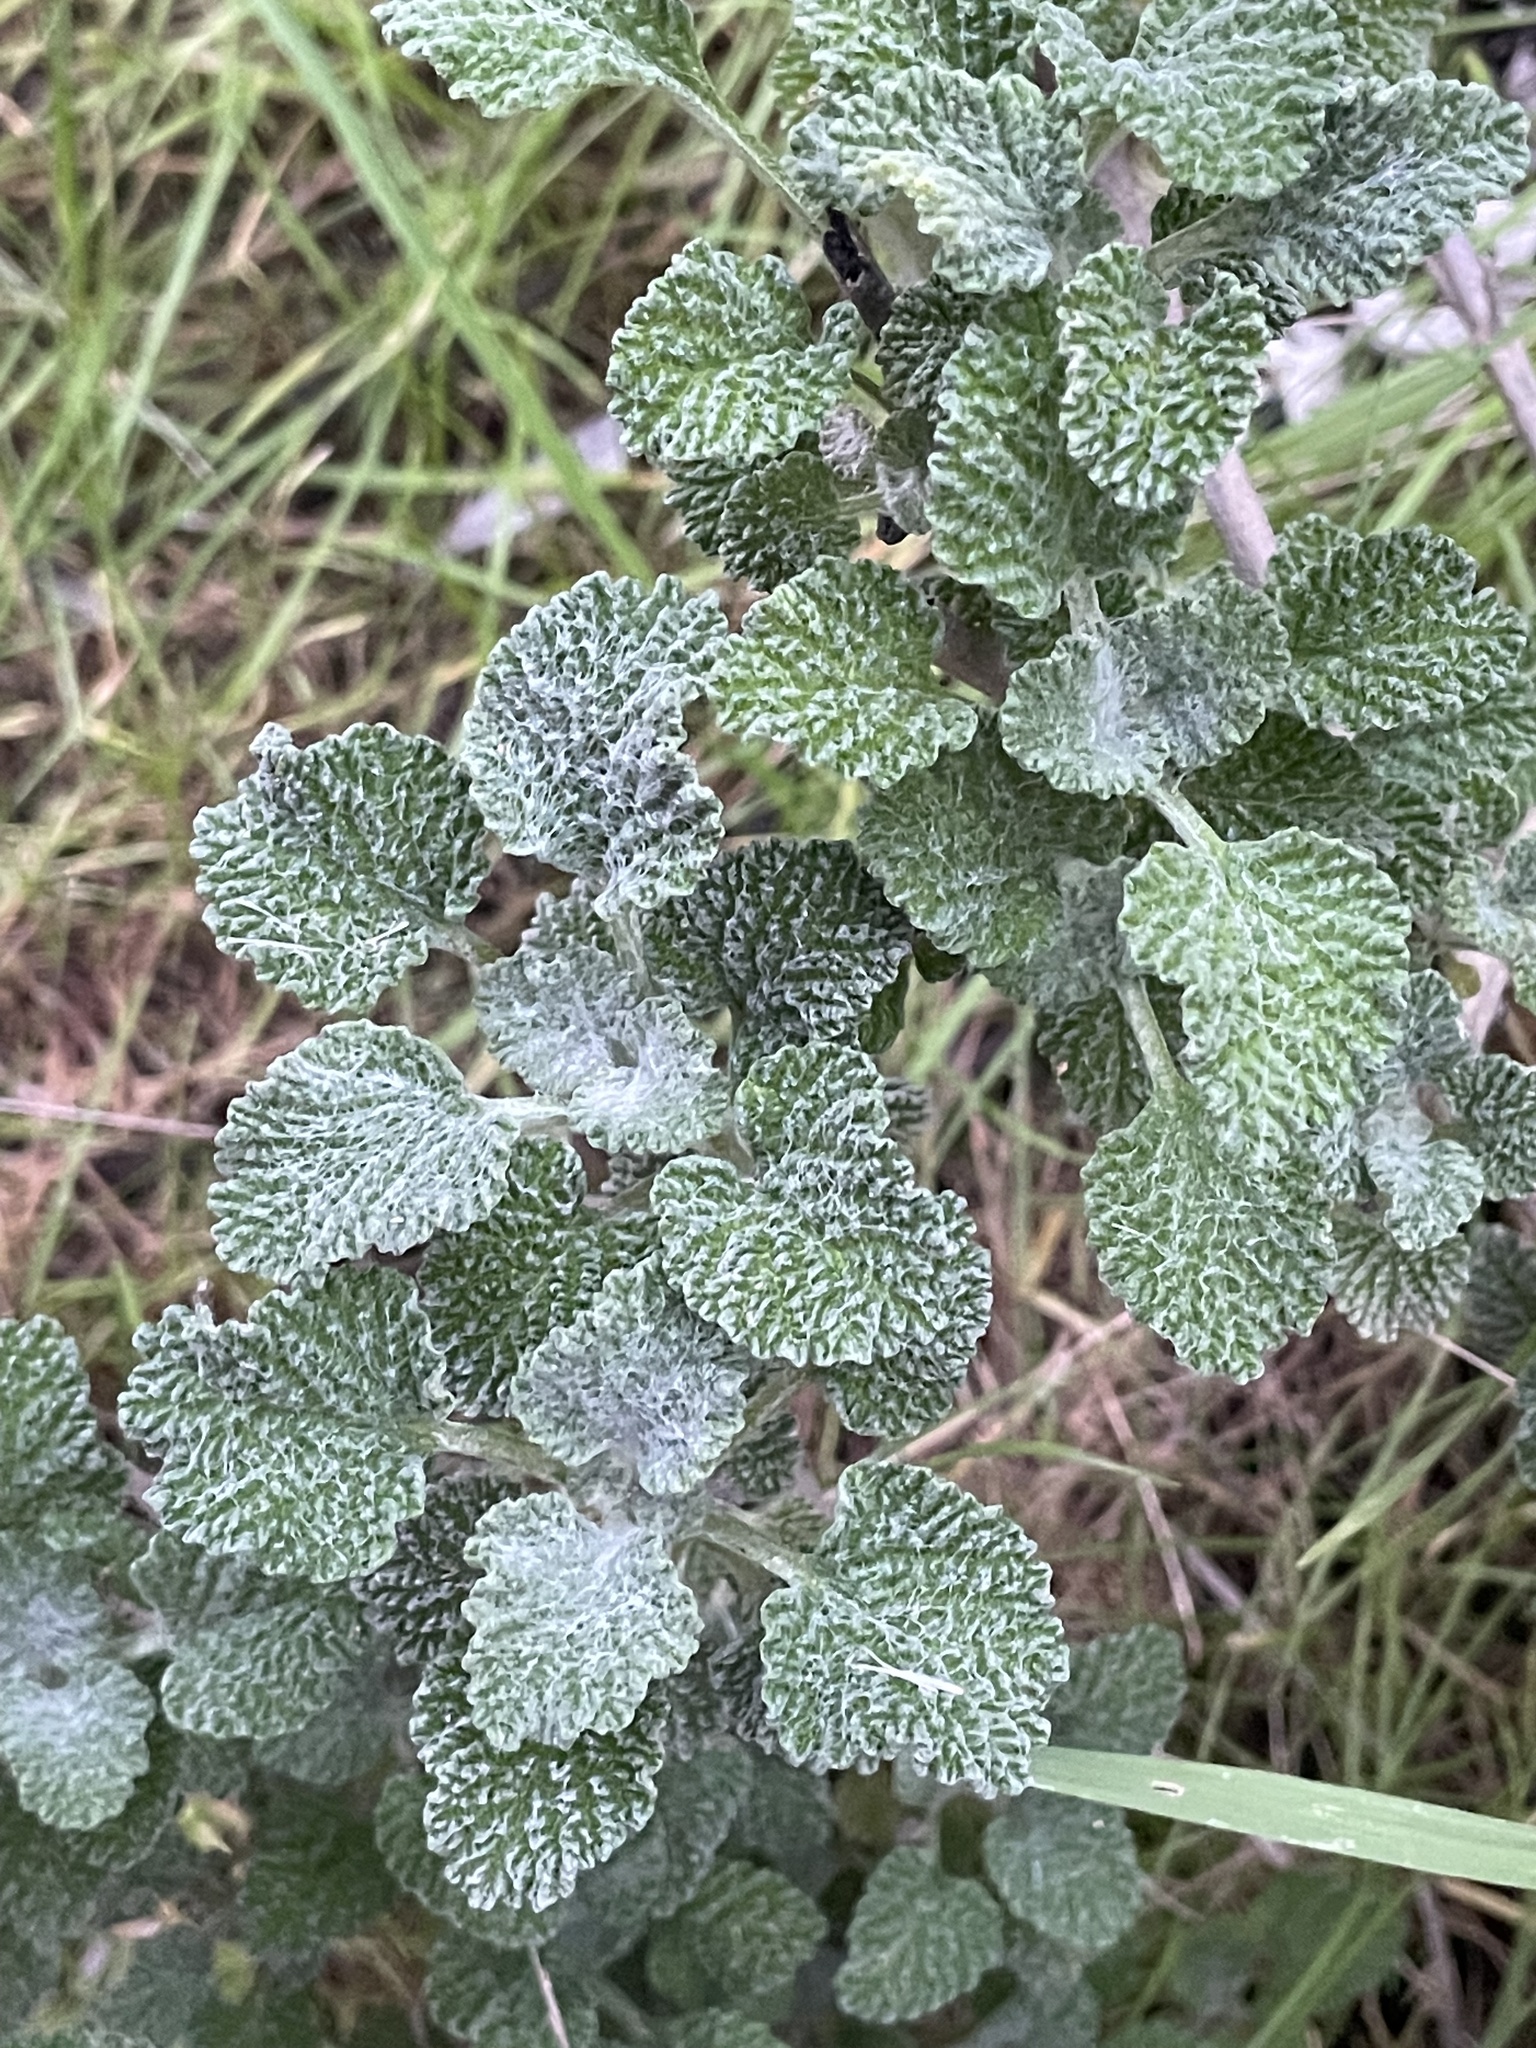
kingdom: Plantae
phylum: Tracheophyta
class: Magnoliopsida
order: Lamiales
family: Lamiaceae
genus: Marrubium
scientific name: Marrubium vulgare
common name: Horehound
